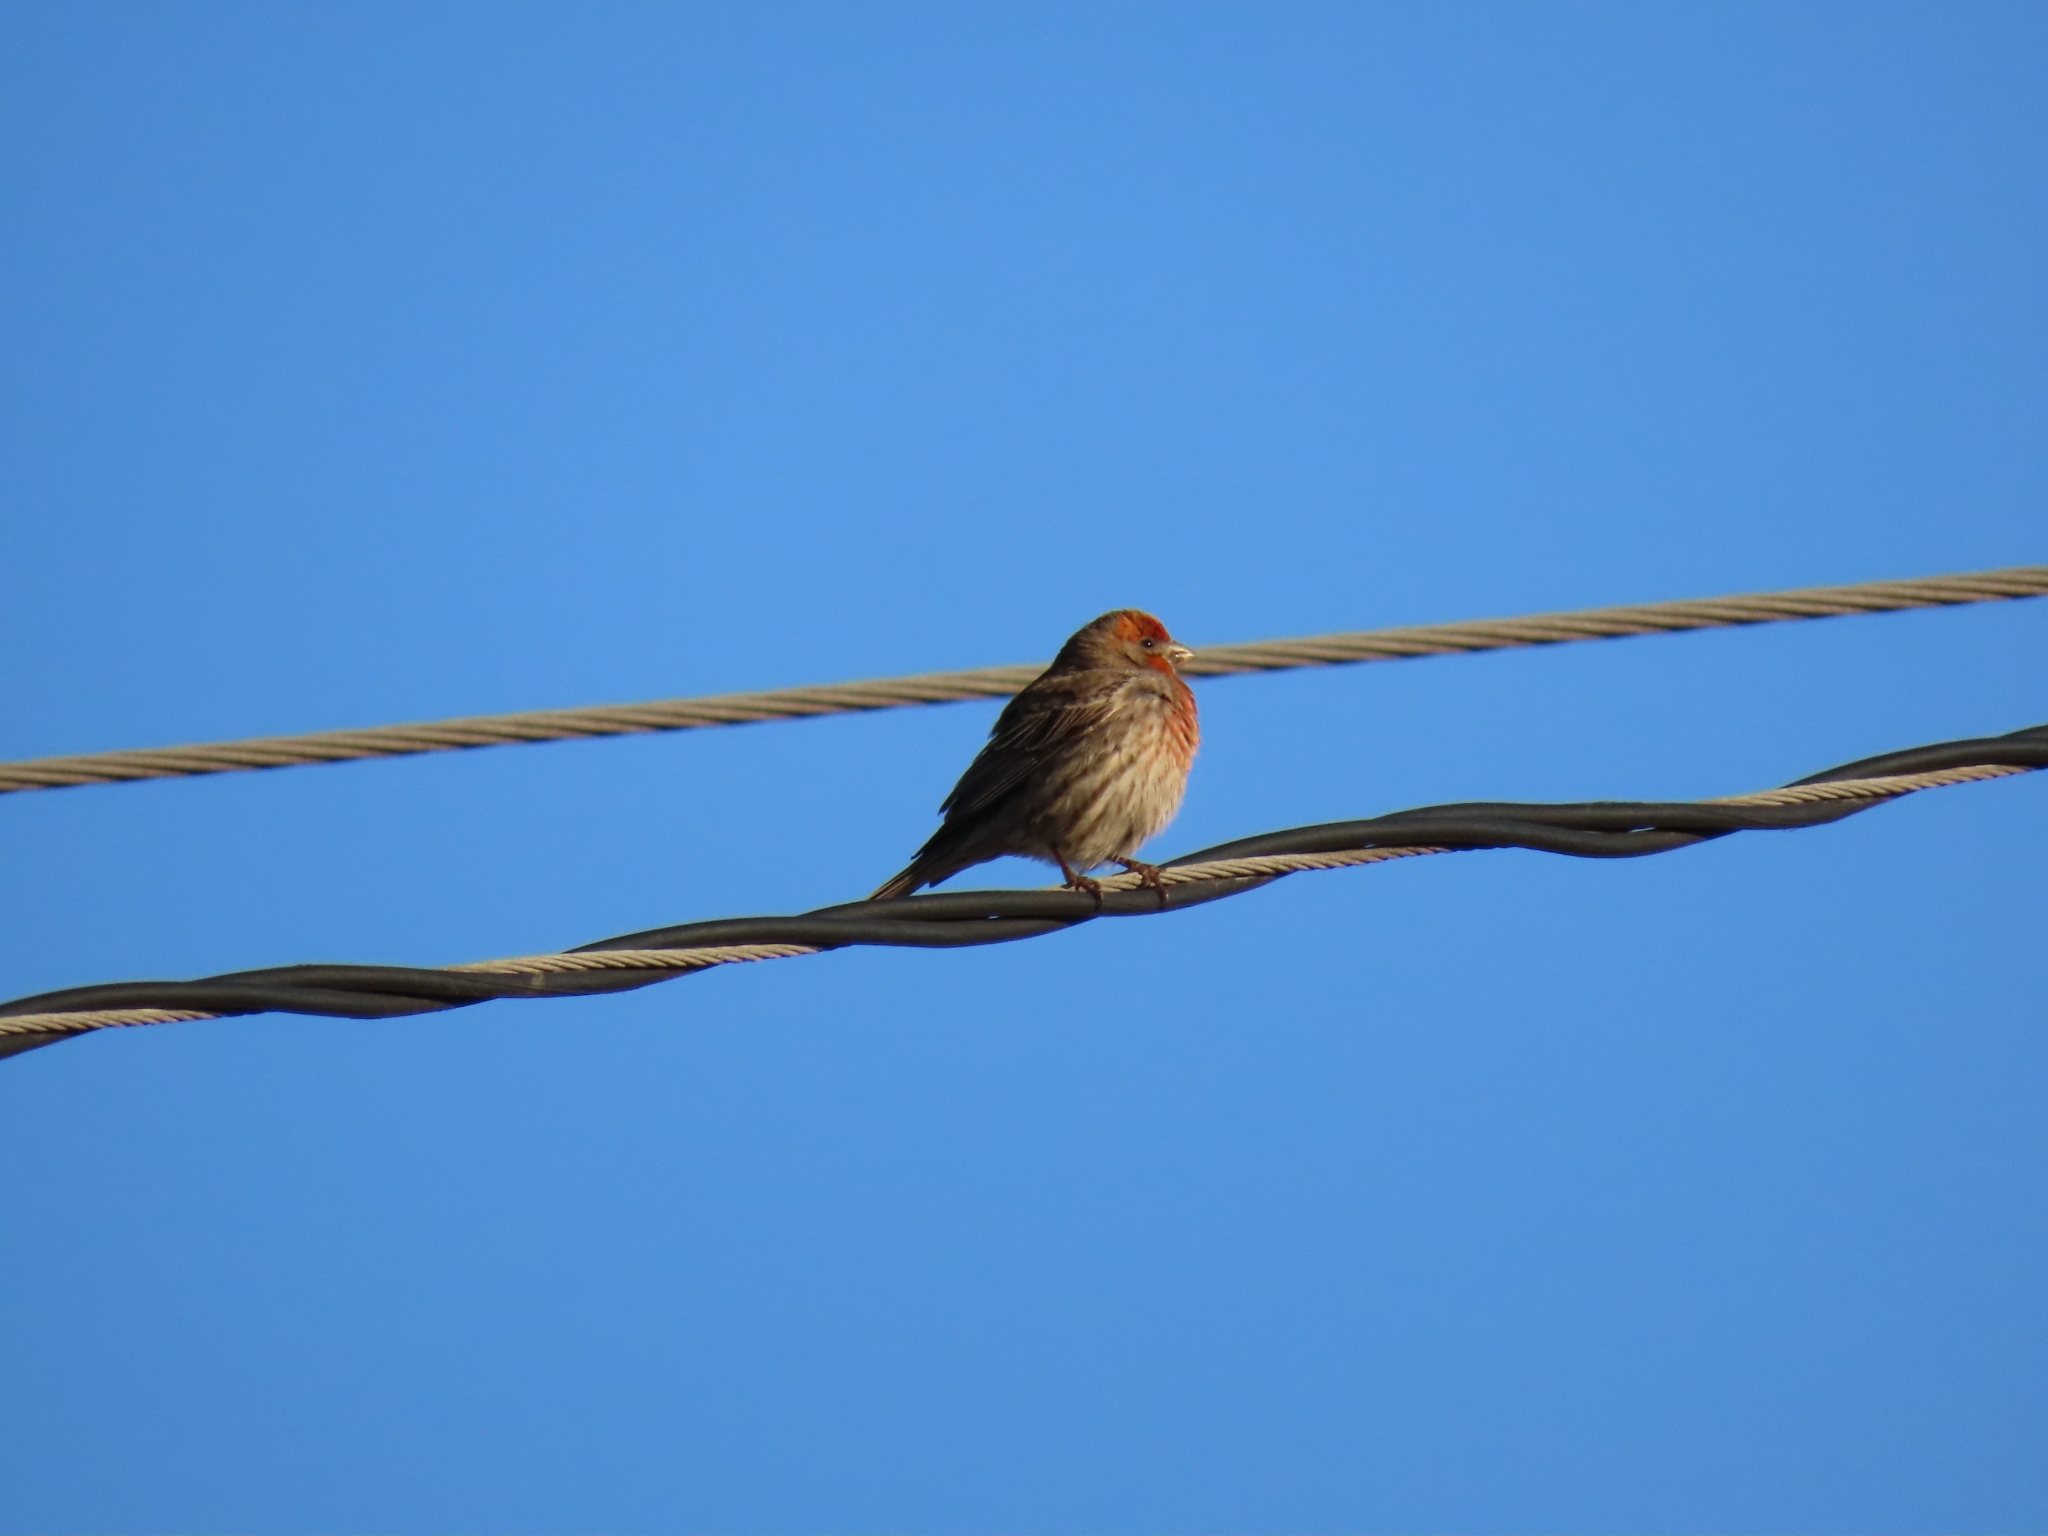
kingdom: Animalia
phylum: Chordata
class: Aves
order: Passeriformes
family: Fringillidae
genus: Haemorhous
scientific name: Haemorhous mexicanus
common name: House finch
